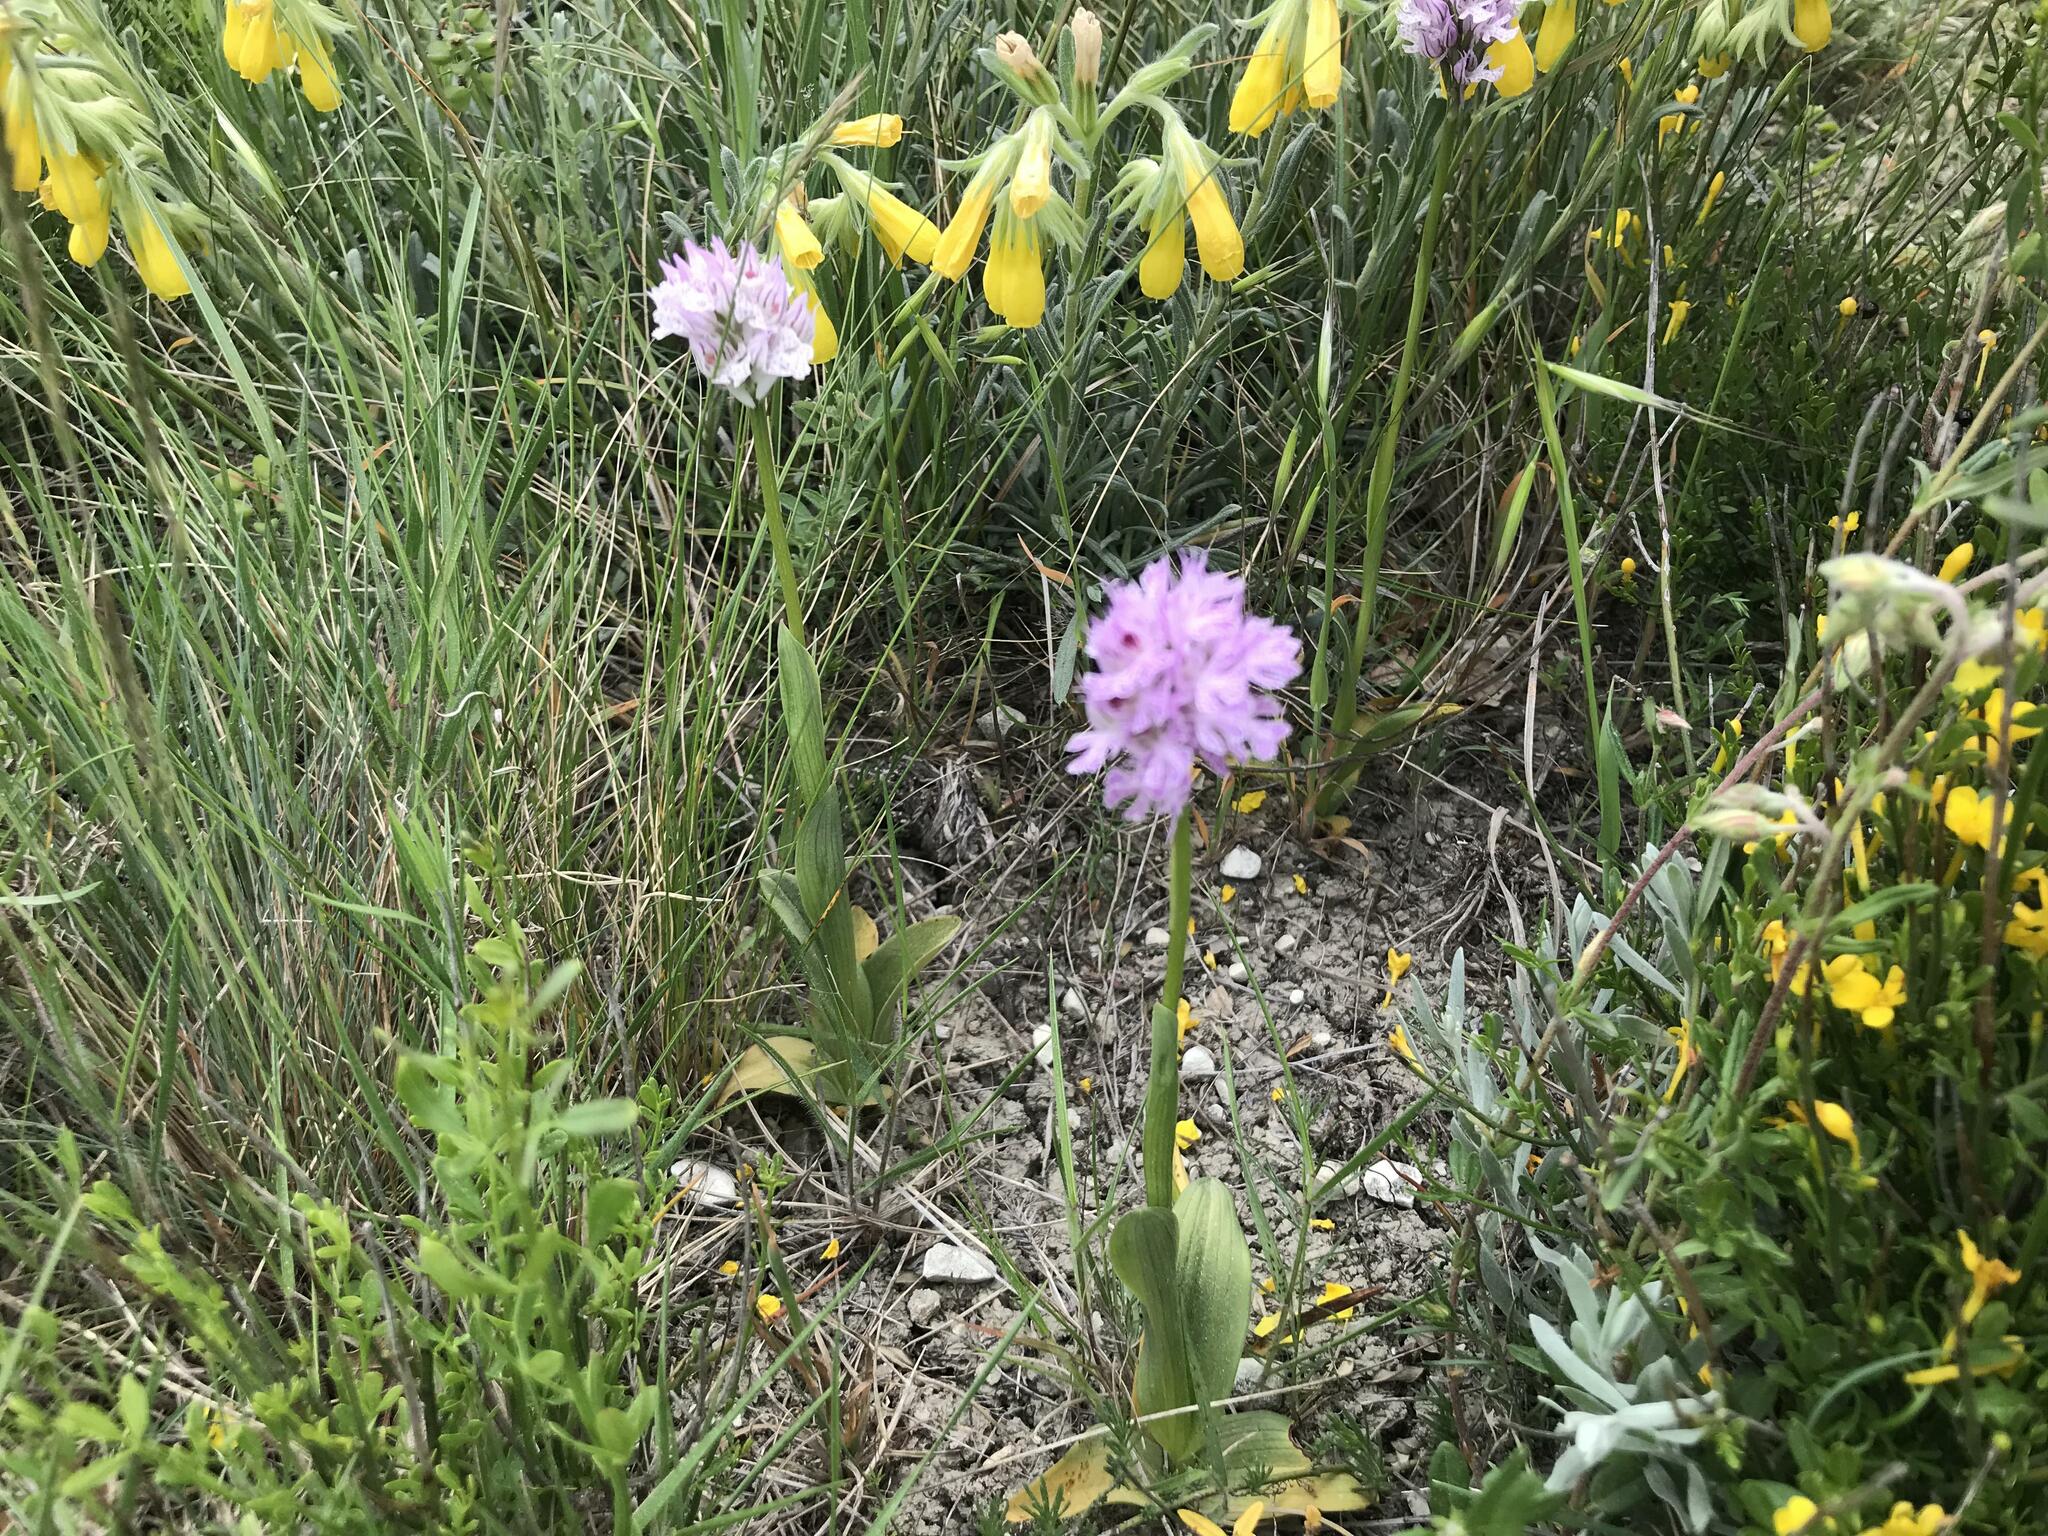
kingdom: Plantae
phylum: Tracheophyta
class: Liliopsida
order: Asparagales
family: Orchidaceae
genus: Neotinea
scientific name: Neotinea tridentata
